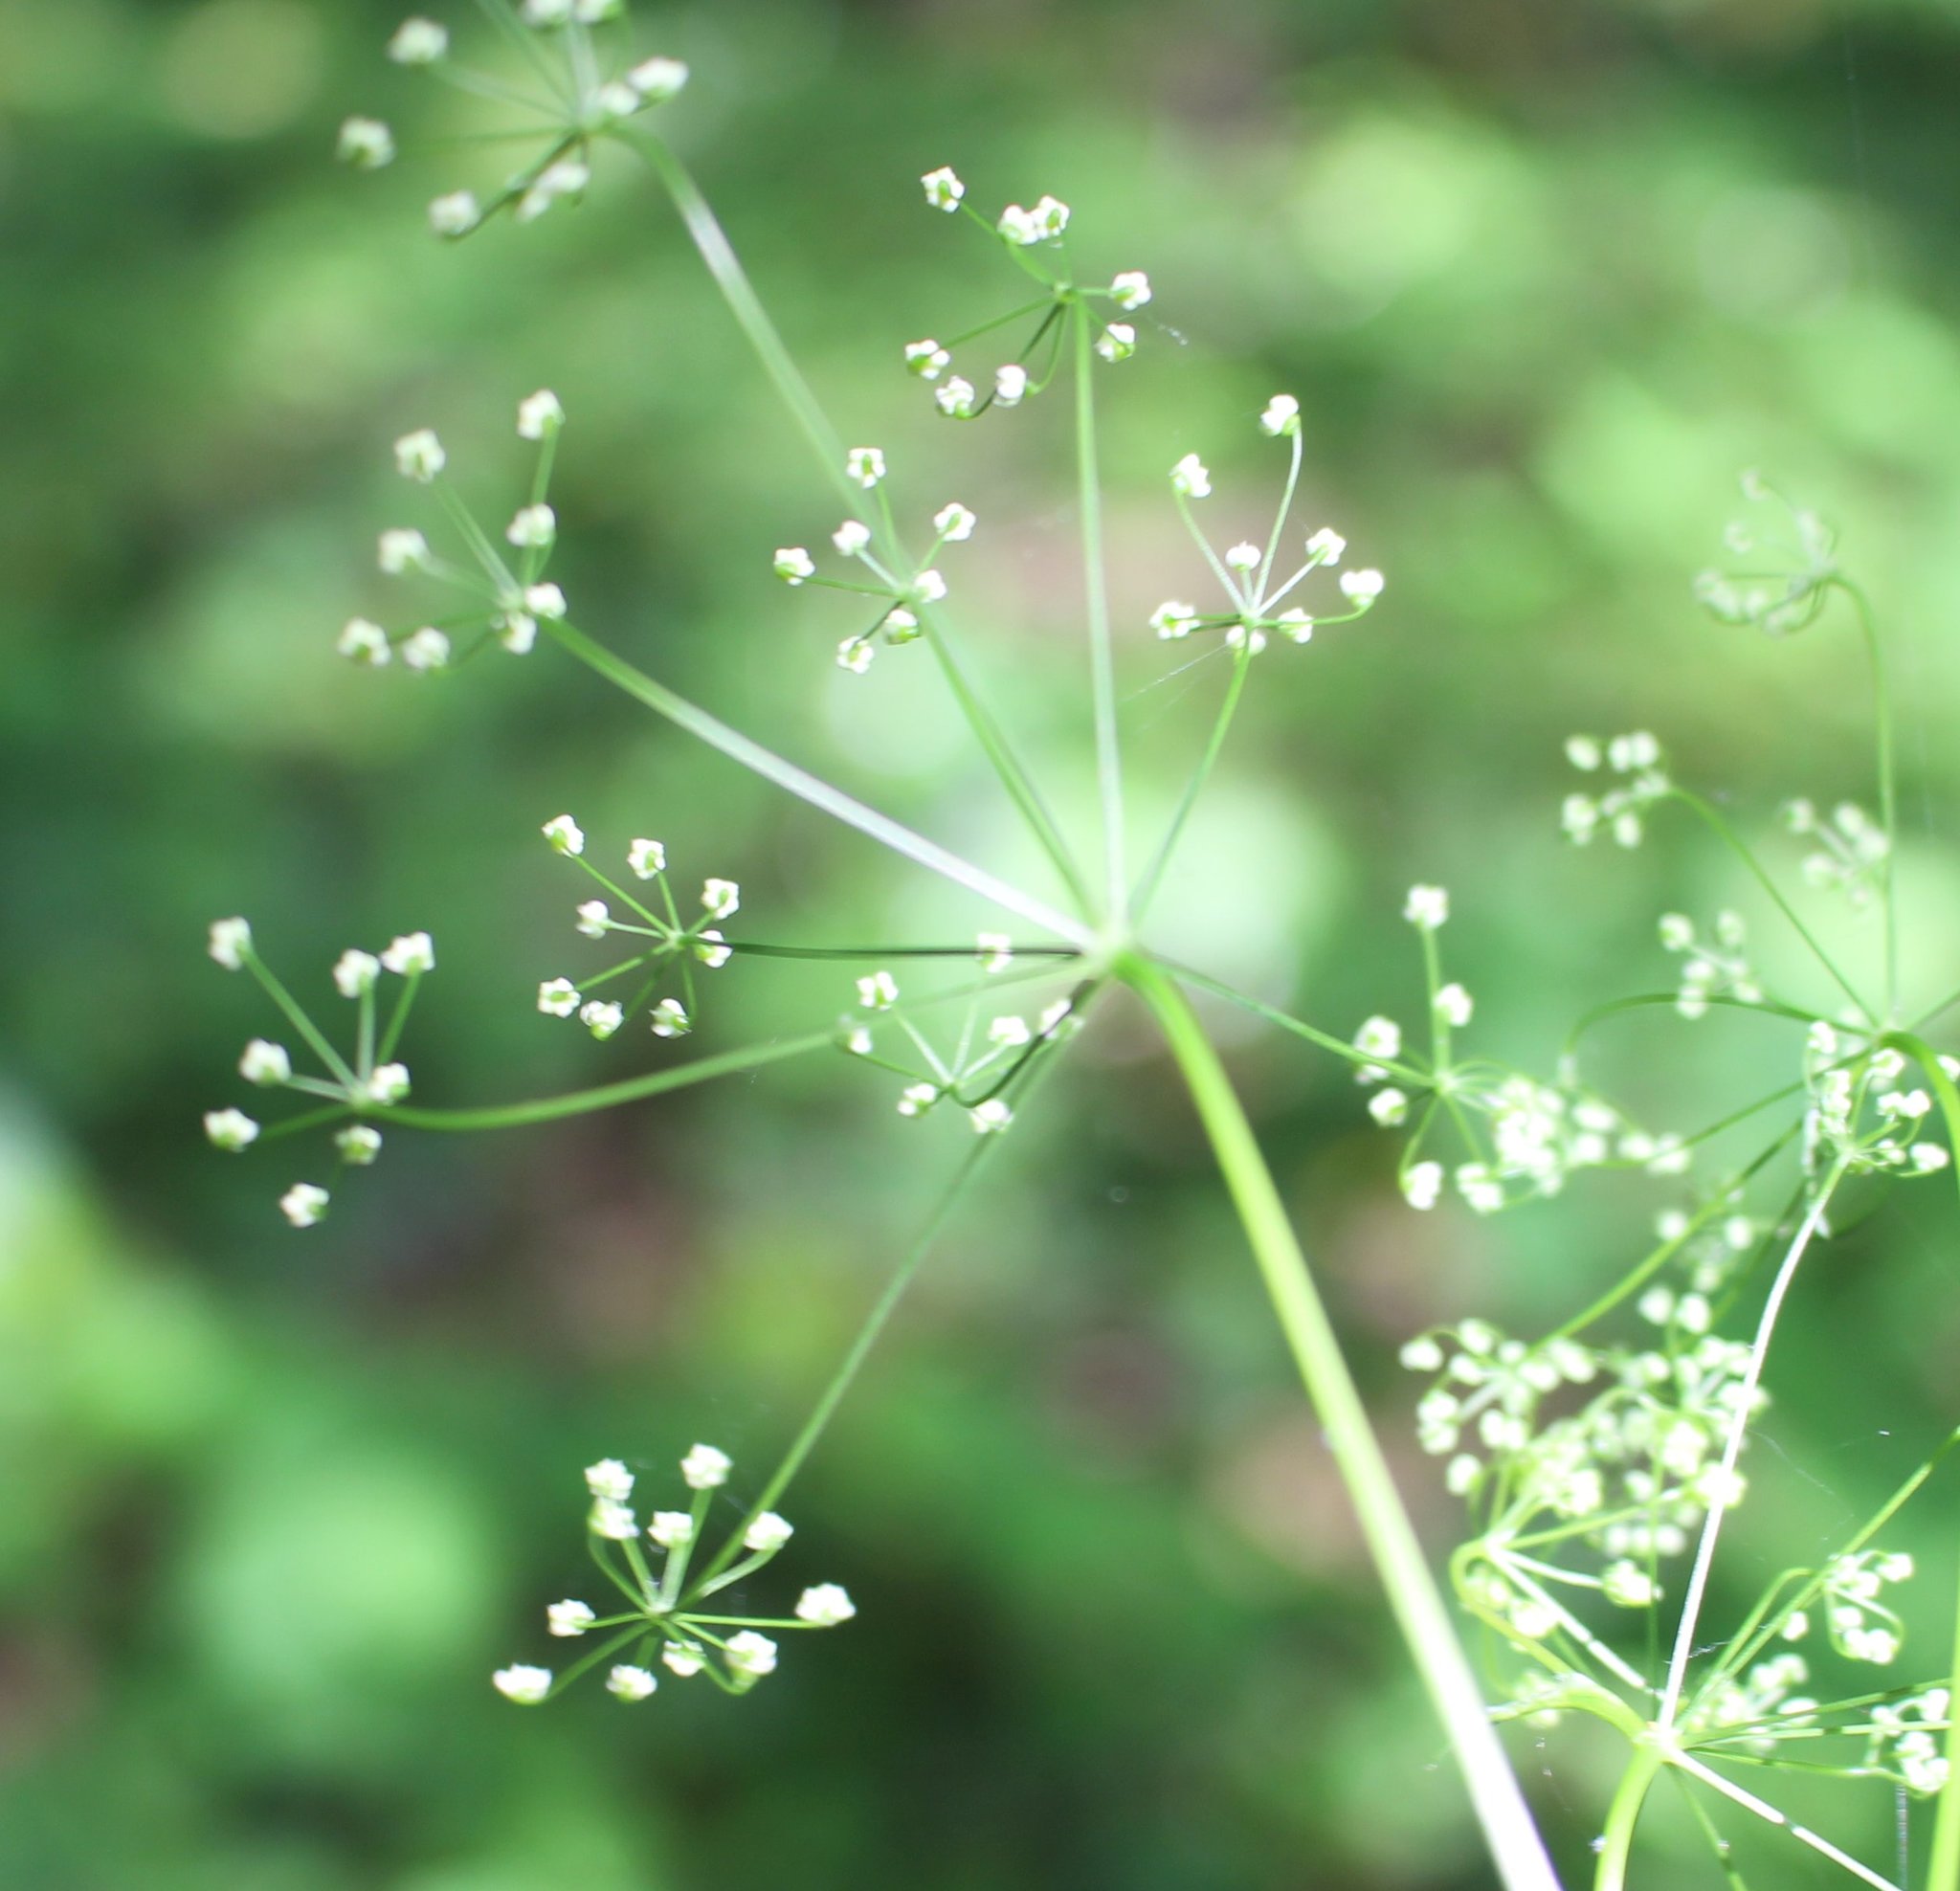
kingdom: Plantae
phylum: Tracheophyta
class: Magnoliopsida
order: Apiales
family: Apiaceae
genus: Pimpinella
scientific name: Pimpinella tripartita
